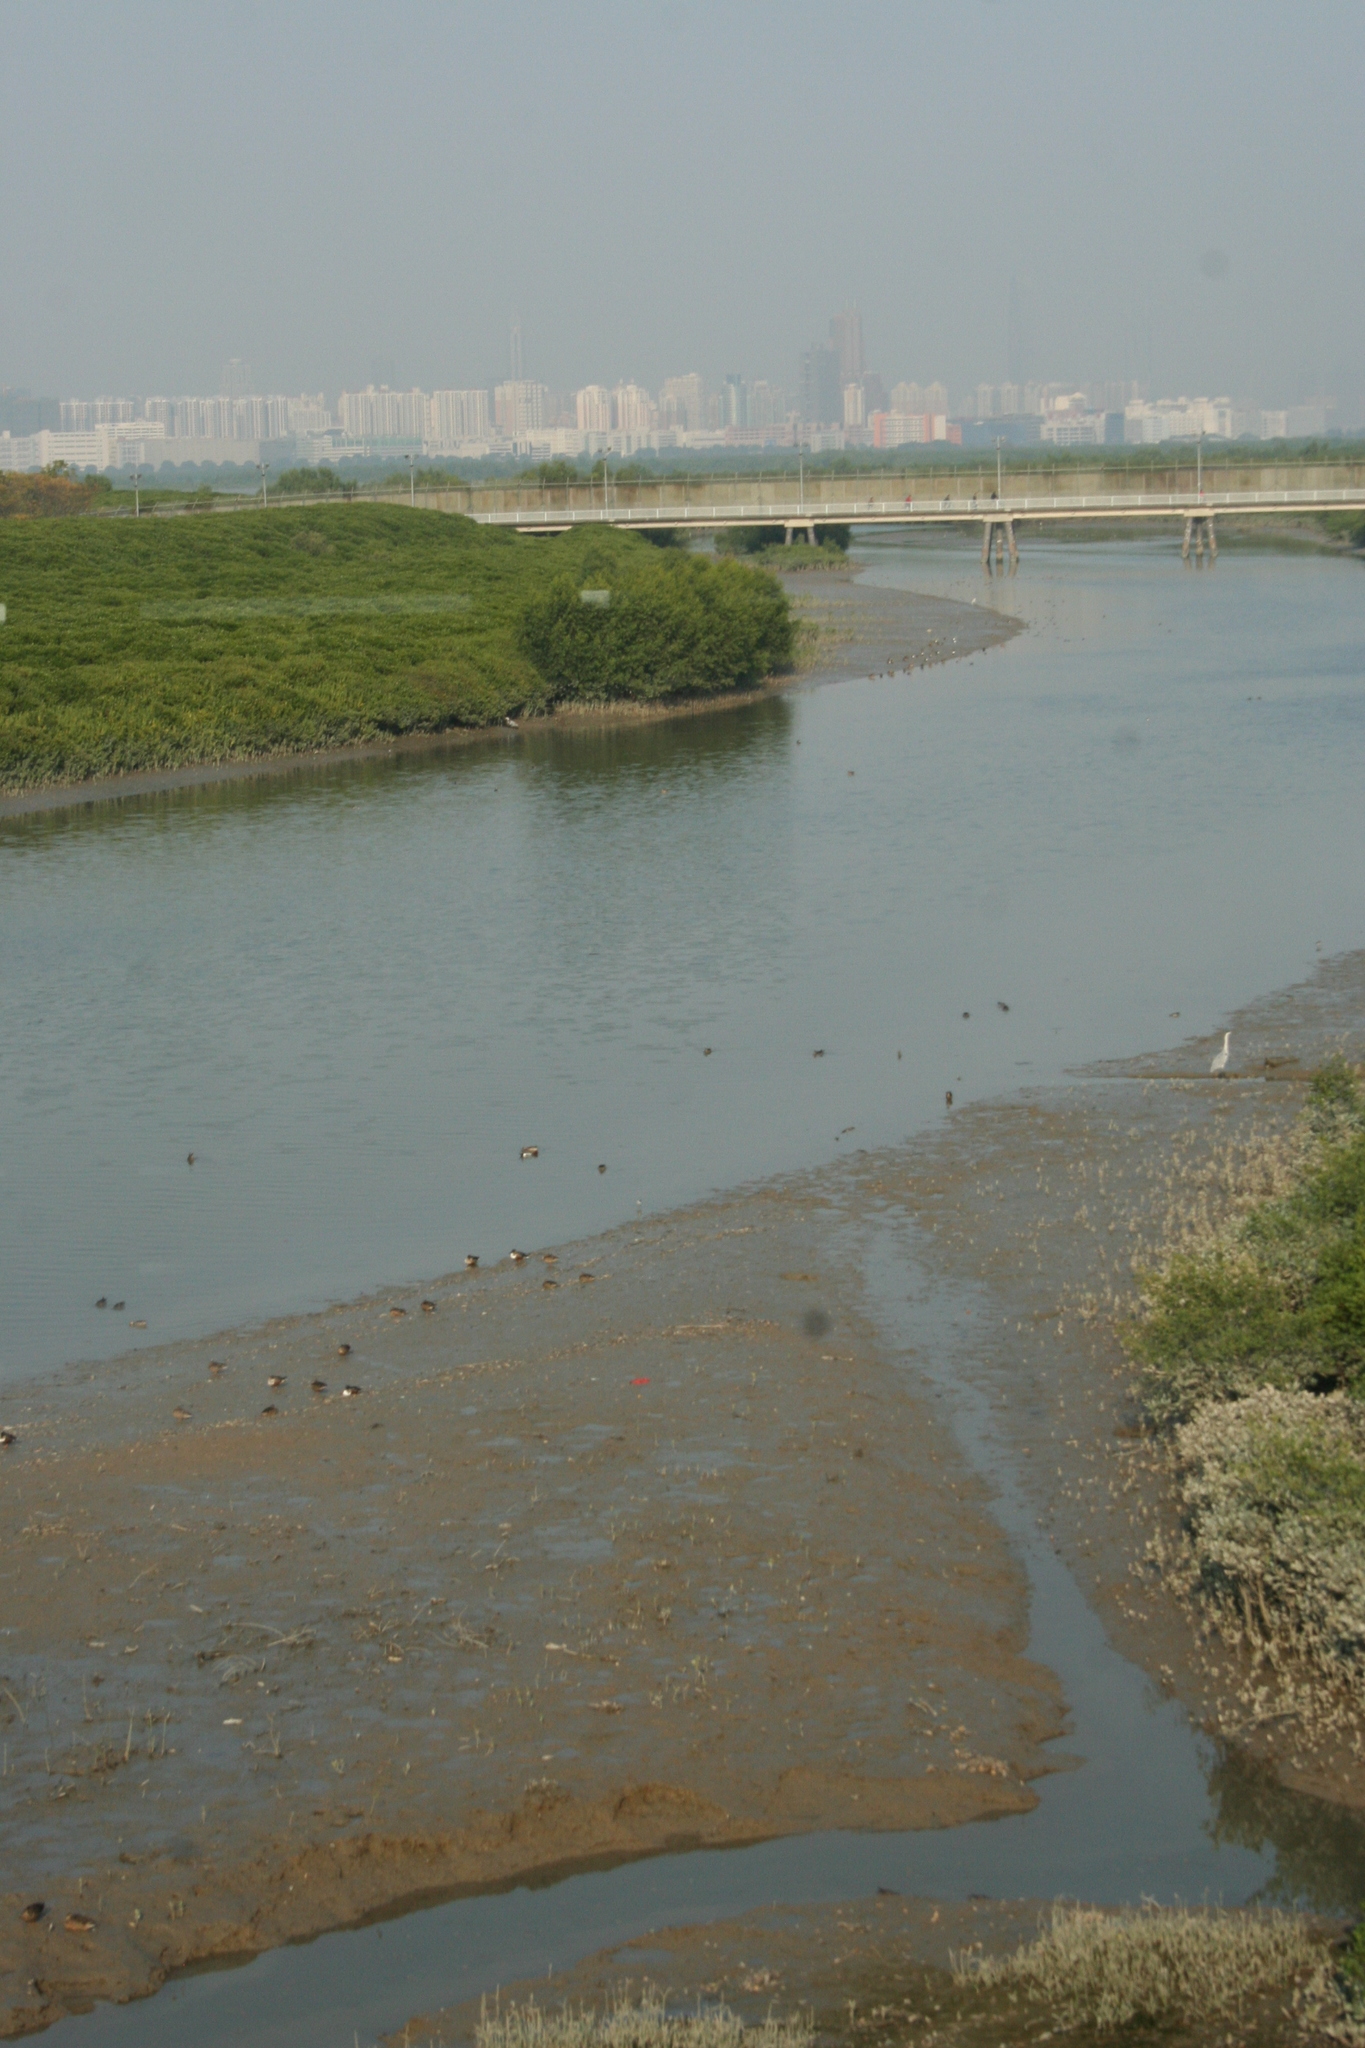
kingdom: Animalia
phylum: Chordata
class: Aves
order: Pelecaniformes
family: Ardeidae
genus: Ardea
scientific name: Ardea cinerea
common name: Grey heron
